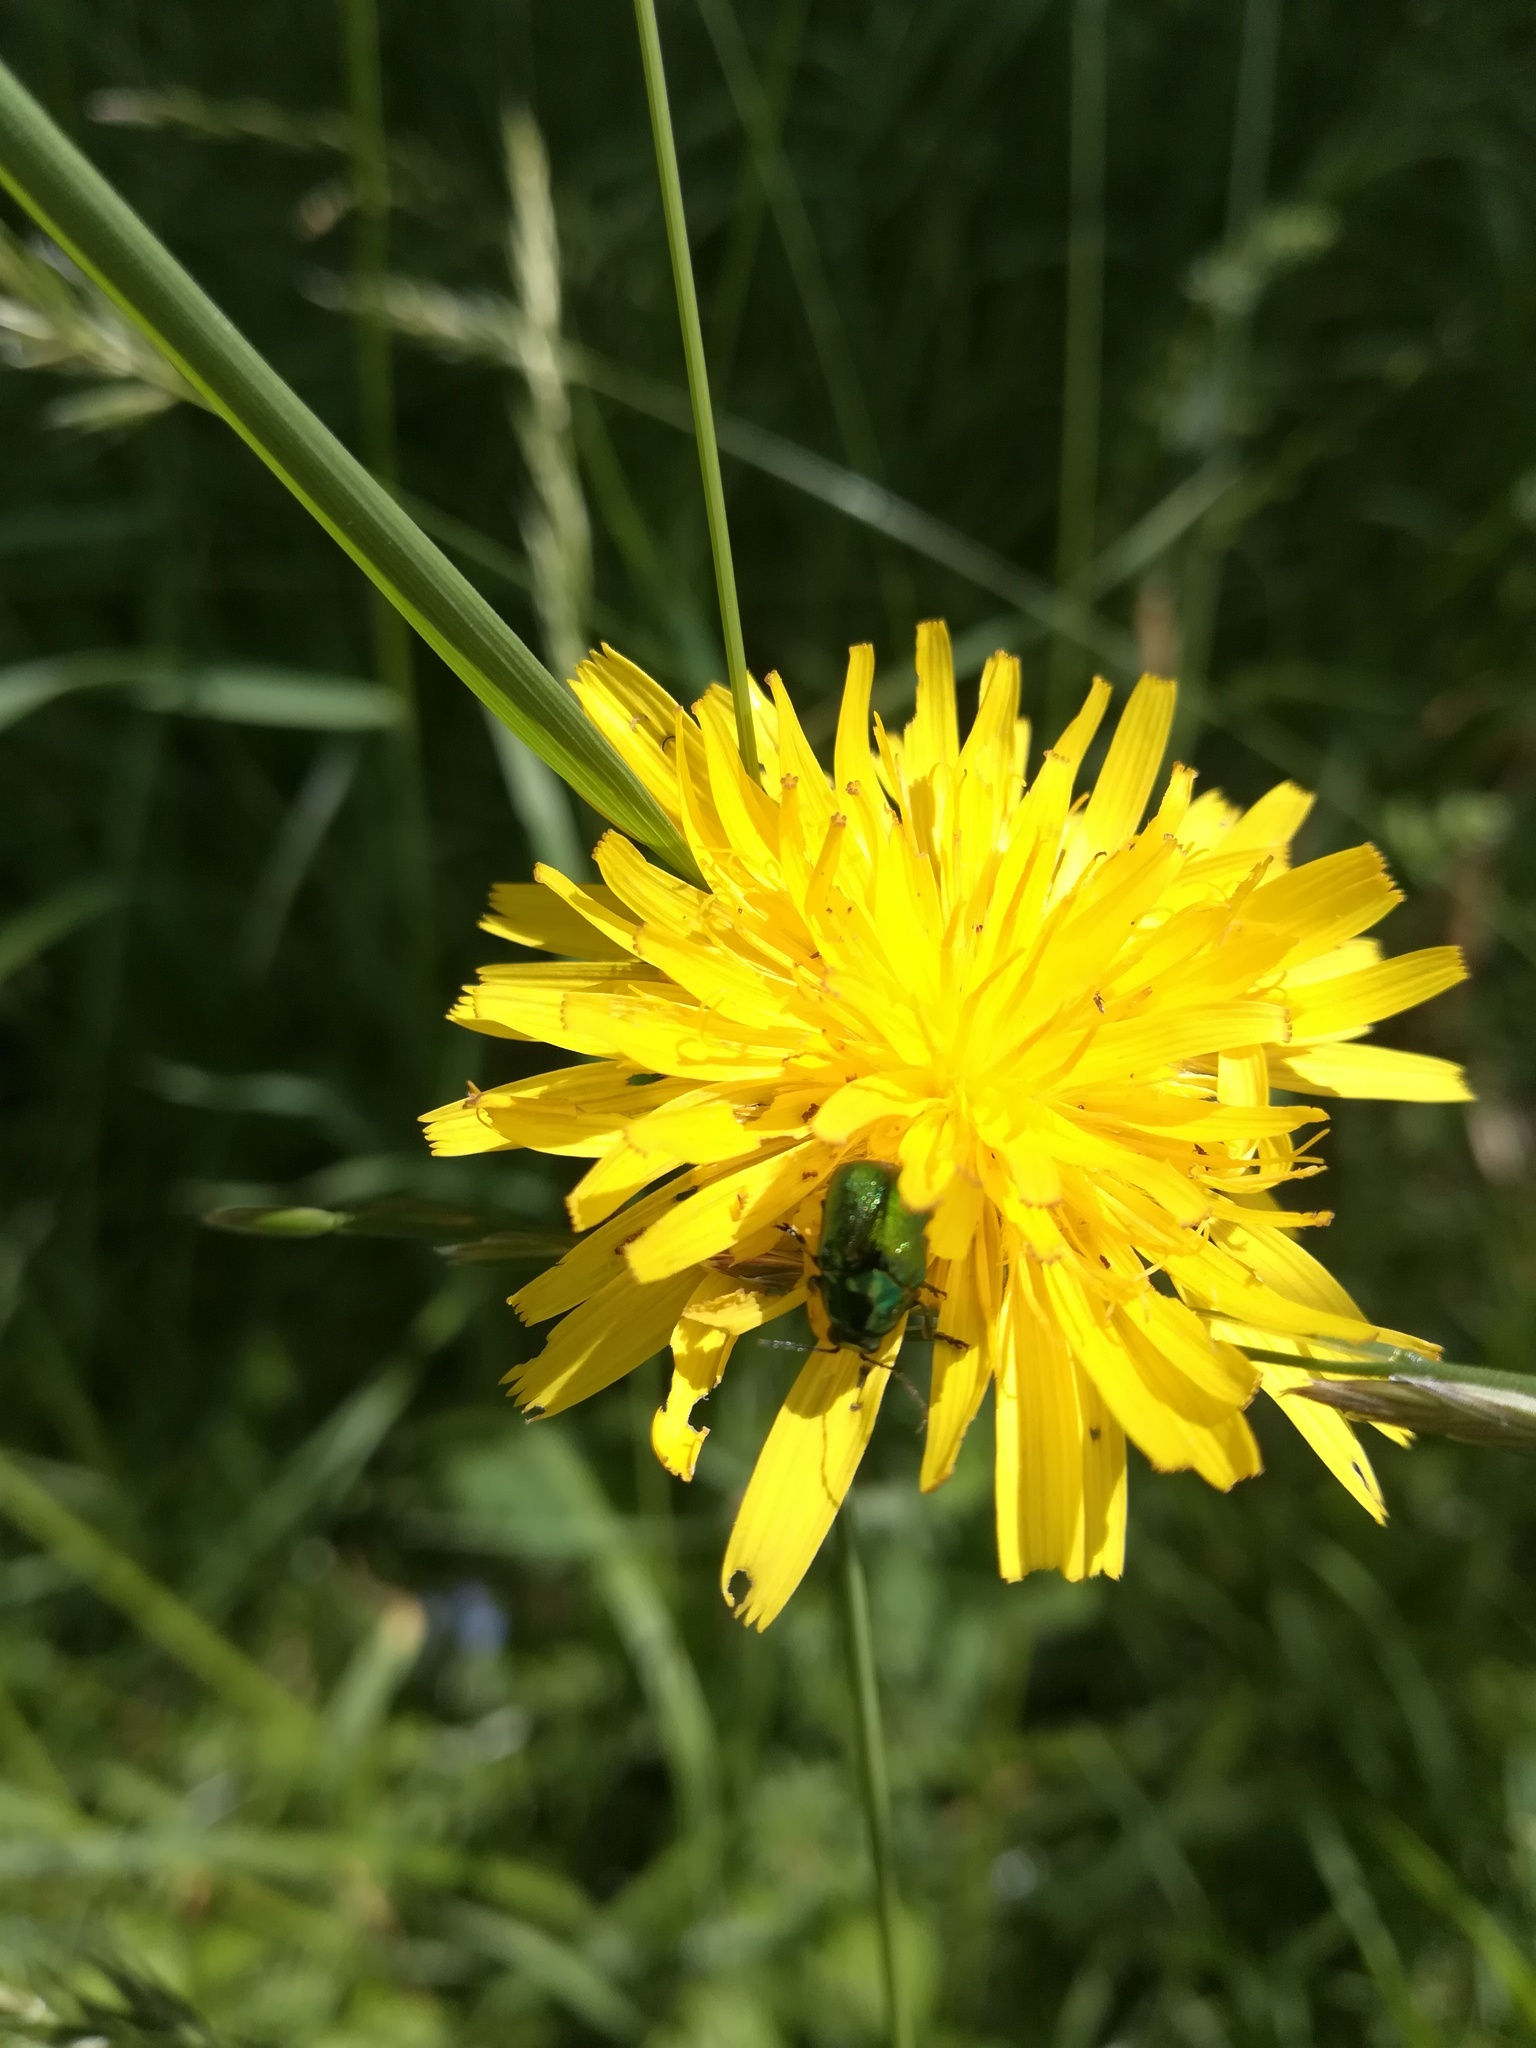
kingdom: Animalia
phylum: Arthropoda
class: Insecta
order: Coleoptera
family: Chrysomelidae
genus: Cryptocephalus
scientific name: Cryptocephalus
